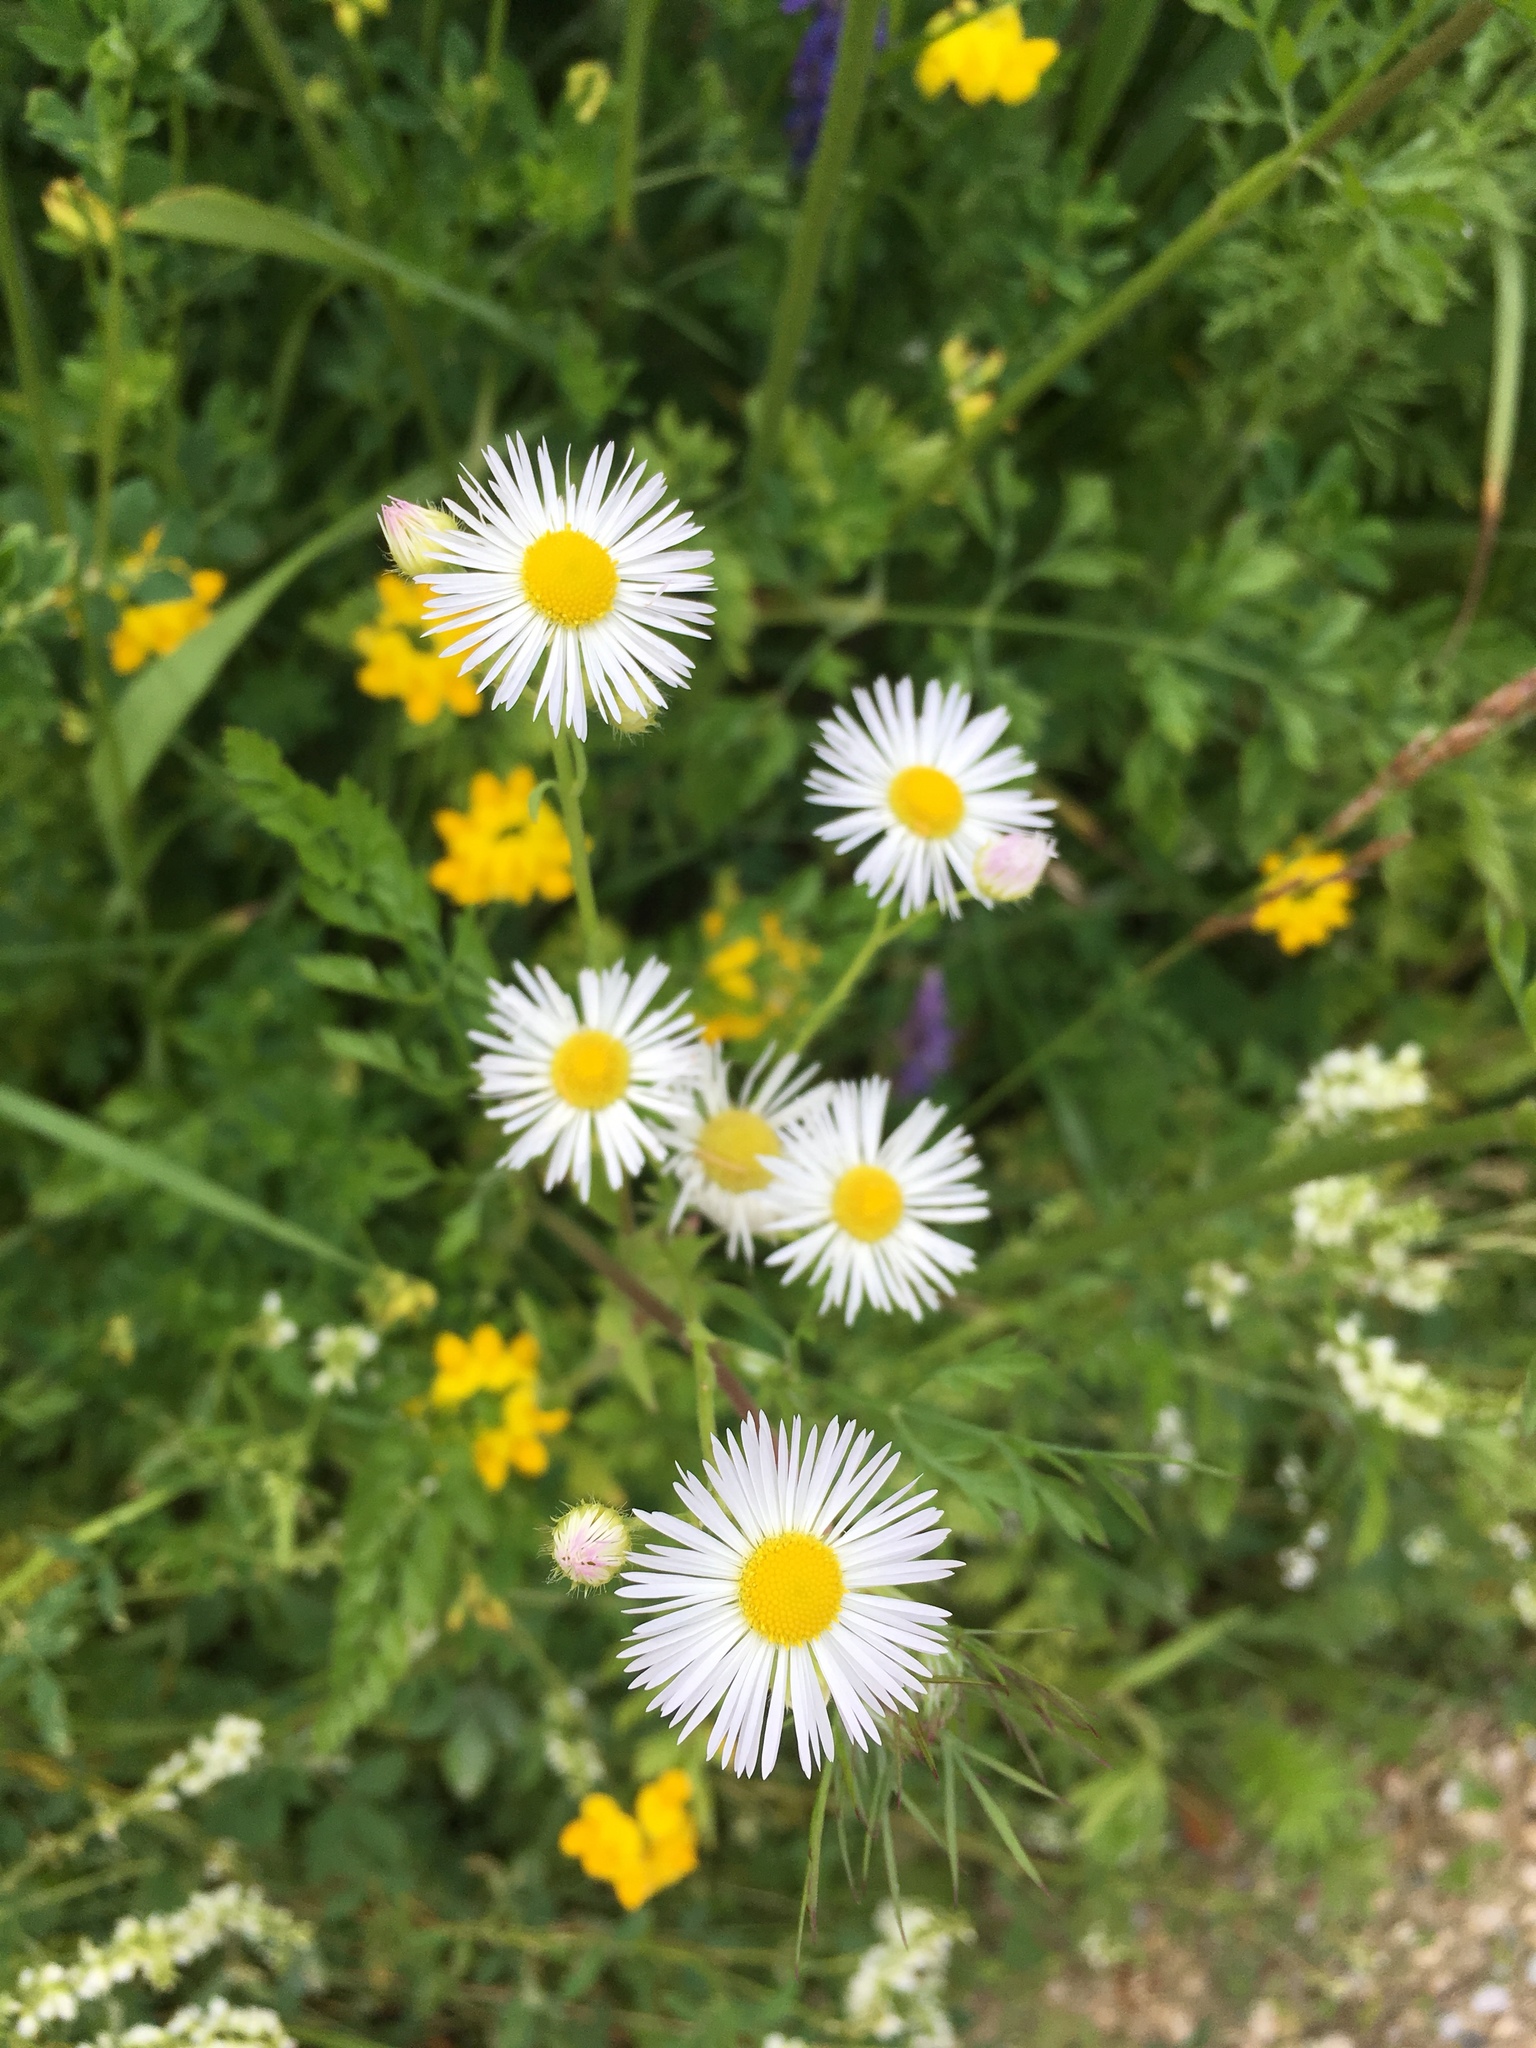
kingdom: Plantae
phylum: Tracheophyta
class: Magnoliopsida
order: Asterales
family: Asteraceae
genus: Erigeron
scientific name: Erigeron annuus
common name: Tall fleabane
